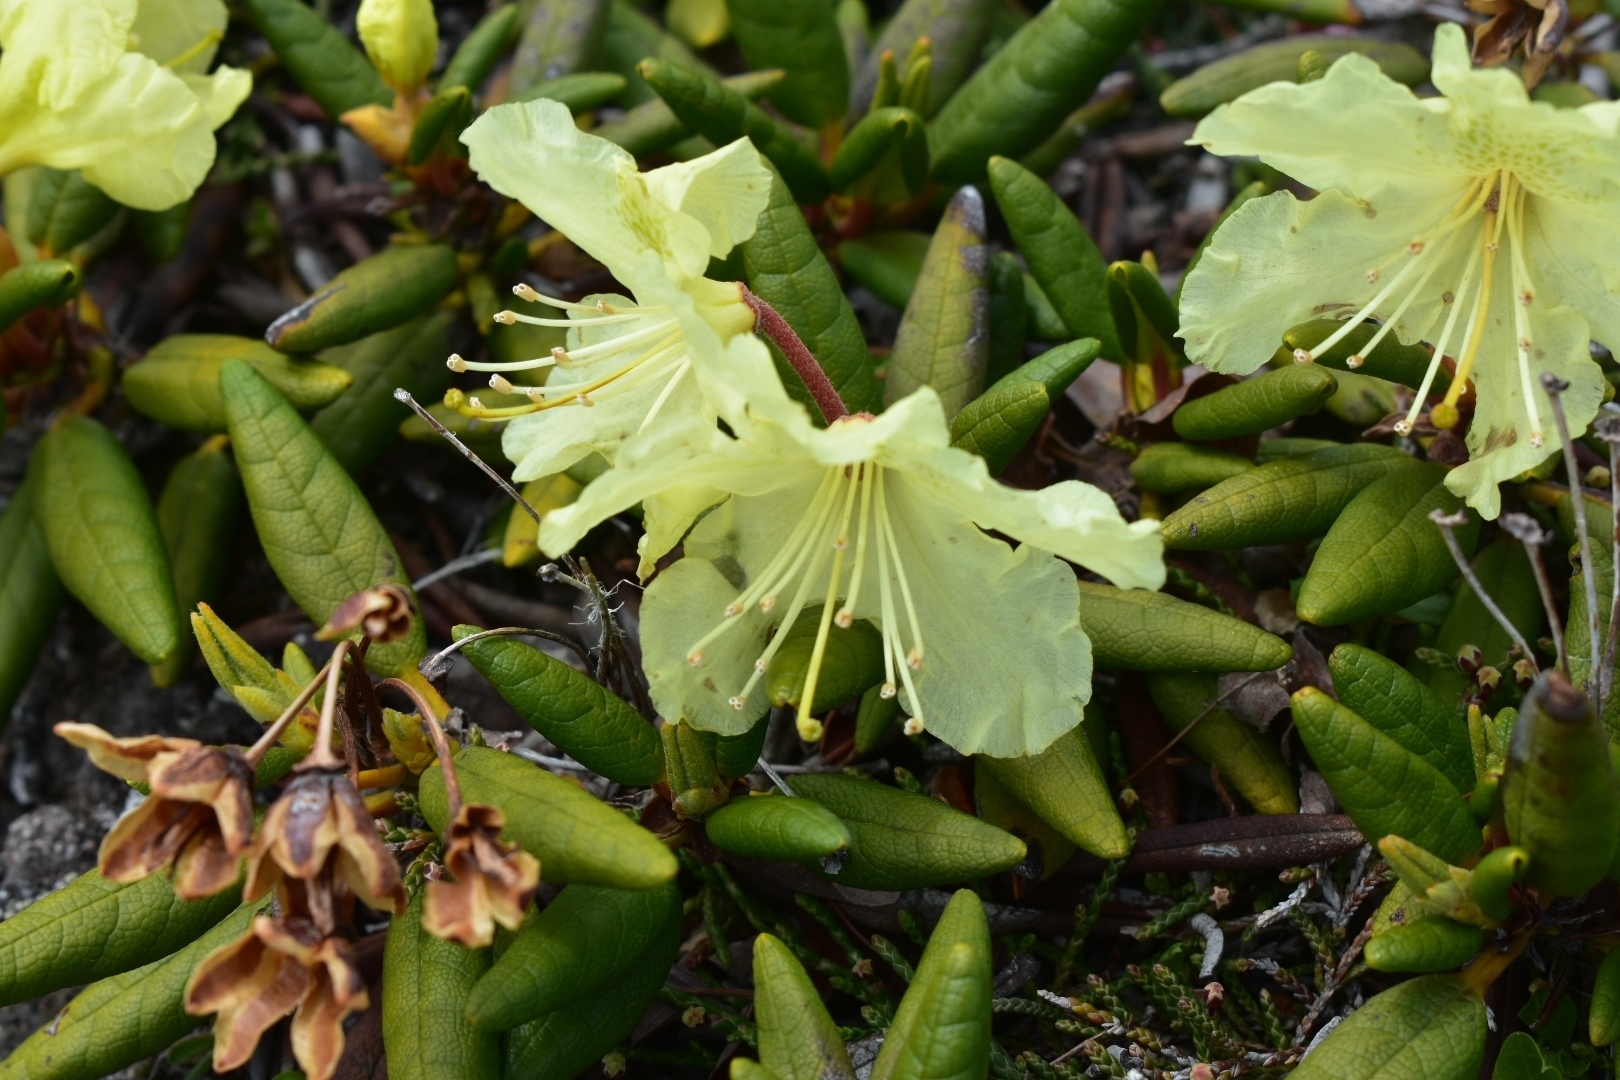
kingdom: Plantae
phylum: Tracheophyta
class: Magnoliopsida
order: Ericales
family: Ericaceae
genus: Rhododendron
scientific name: Rhododendron aureum
